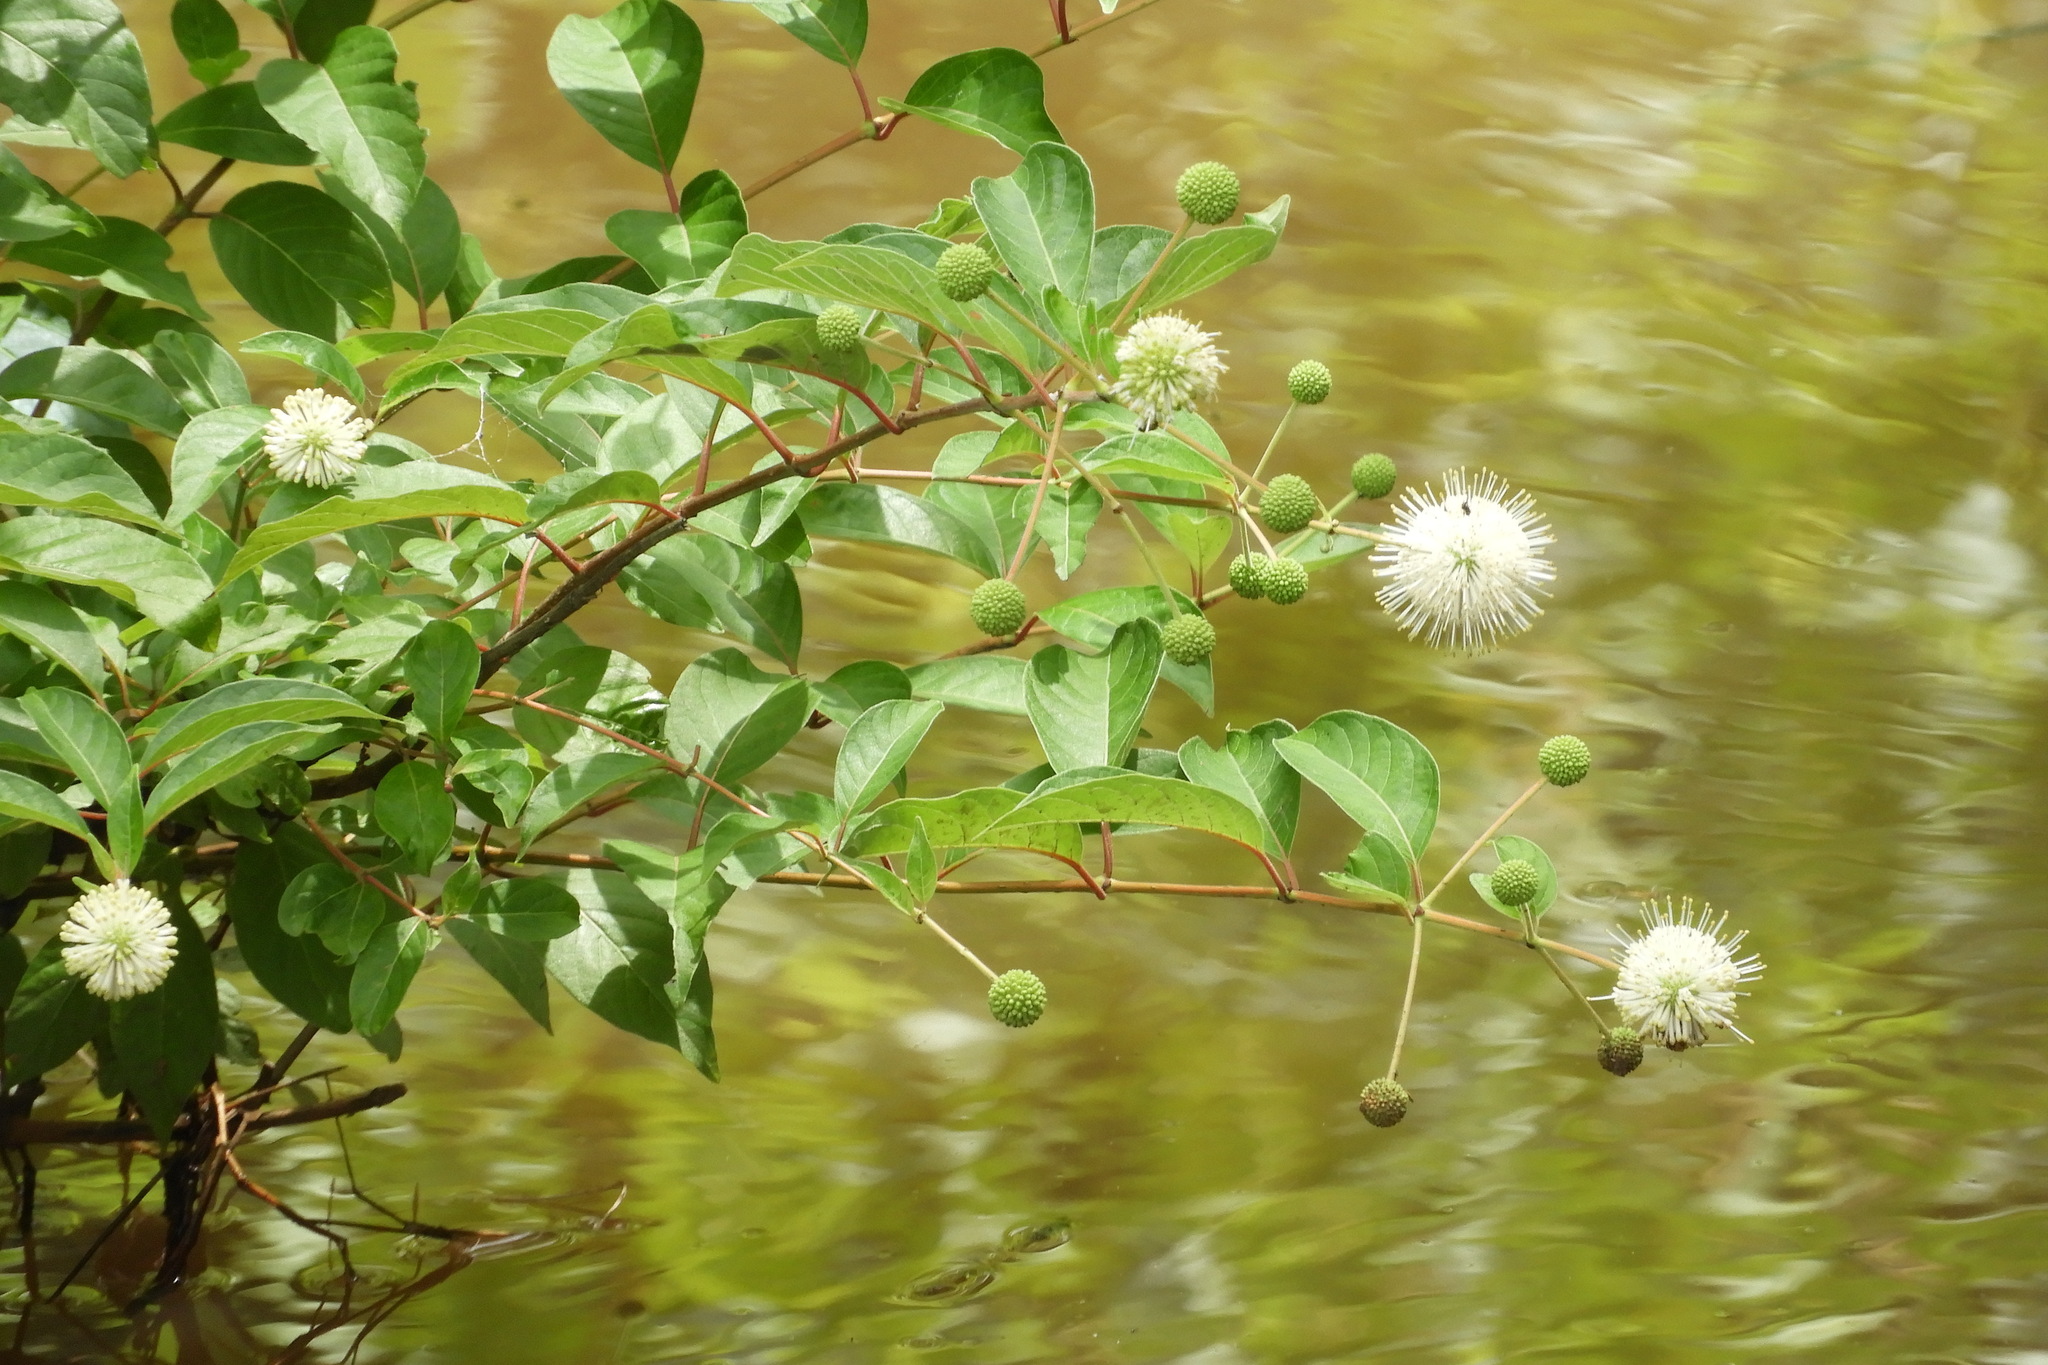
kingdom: Plantae
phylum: Tracheophyta
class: Magnoliopsida
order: Gentianales
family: Rubiaceae
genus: Cephalanthus
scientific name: Cephalanthus occidentalis
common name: Button-willow
